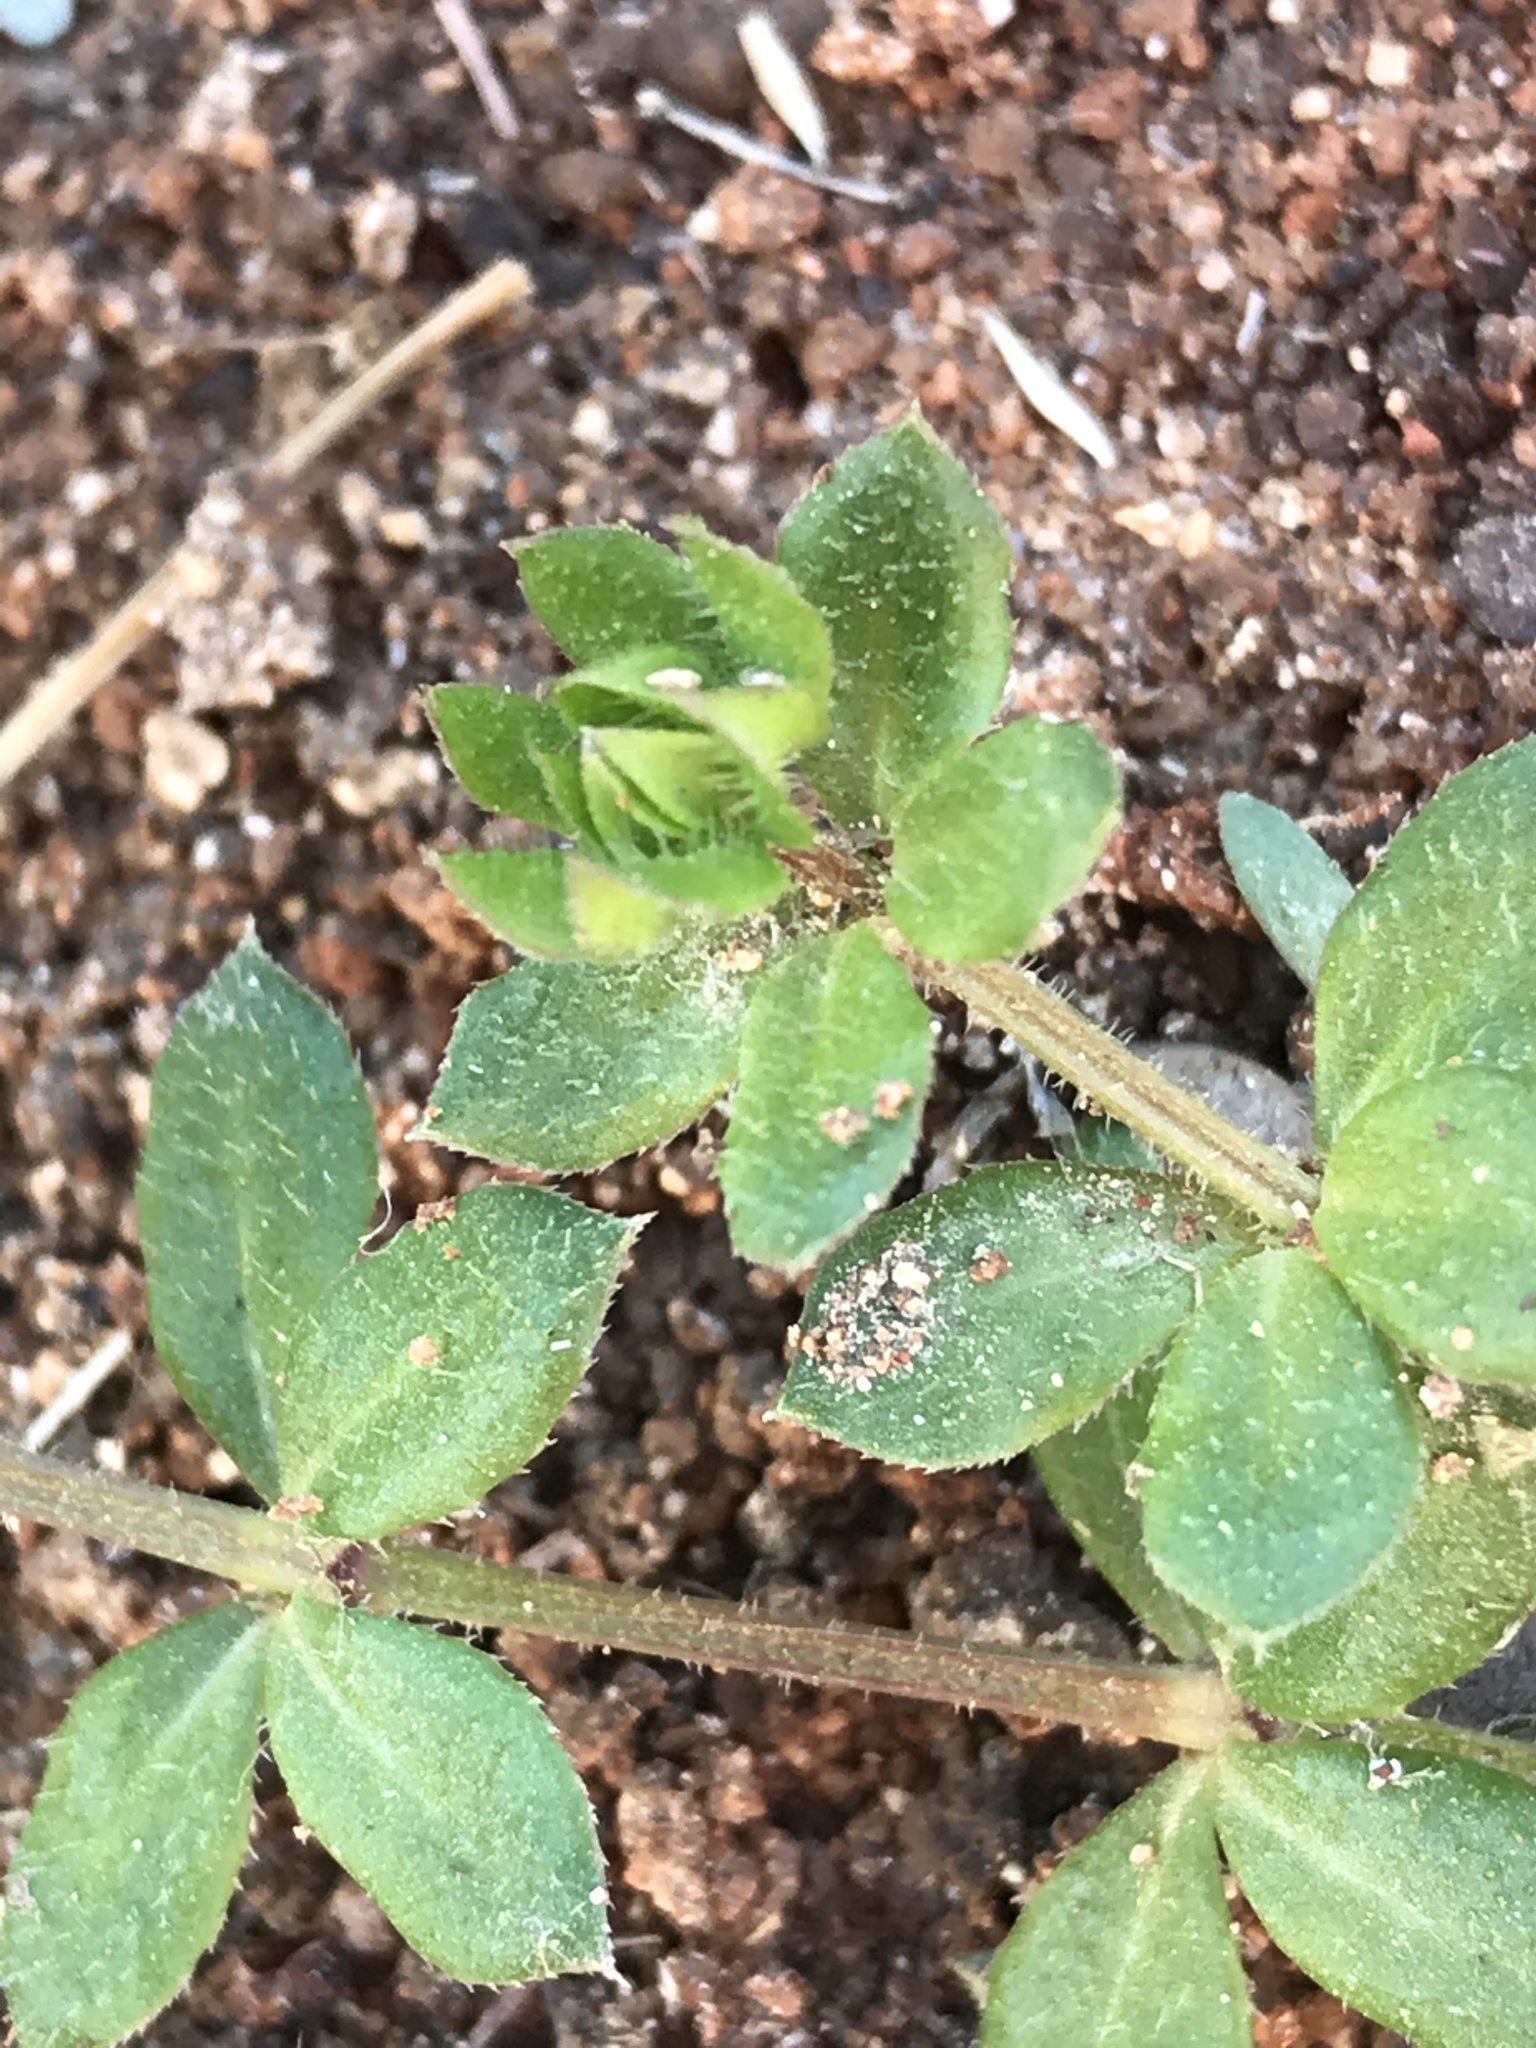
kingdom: Plantae
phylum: Tracheophyta
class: Magnoliopsida
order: Gentianales
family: Rubiaceae
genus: Sherardia
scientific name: Sherardia arvensis
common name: Field madder
